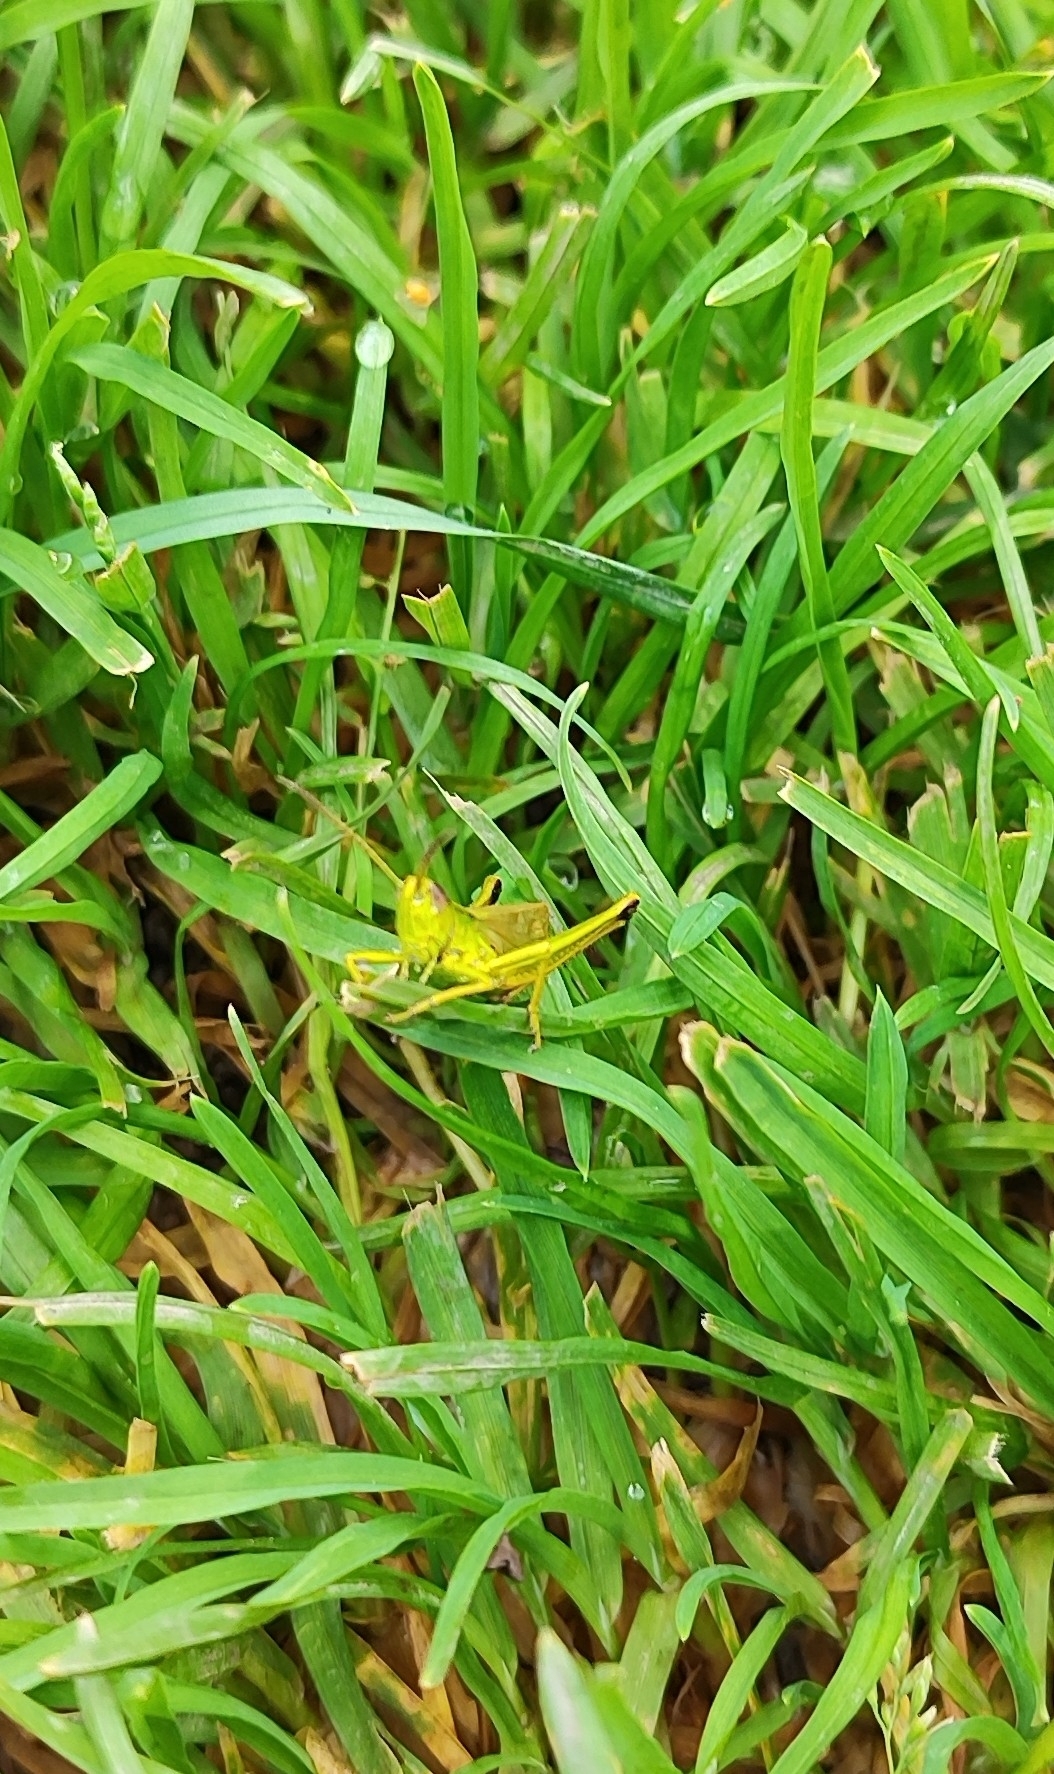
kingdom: Animalia
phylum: Arthropoda
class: Insecta
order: Orthoptera
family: Acrididae
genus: Chrysochraon
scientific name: Chrysochraon dispar
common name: Large gold grasshopper
